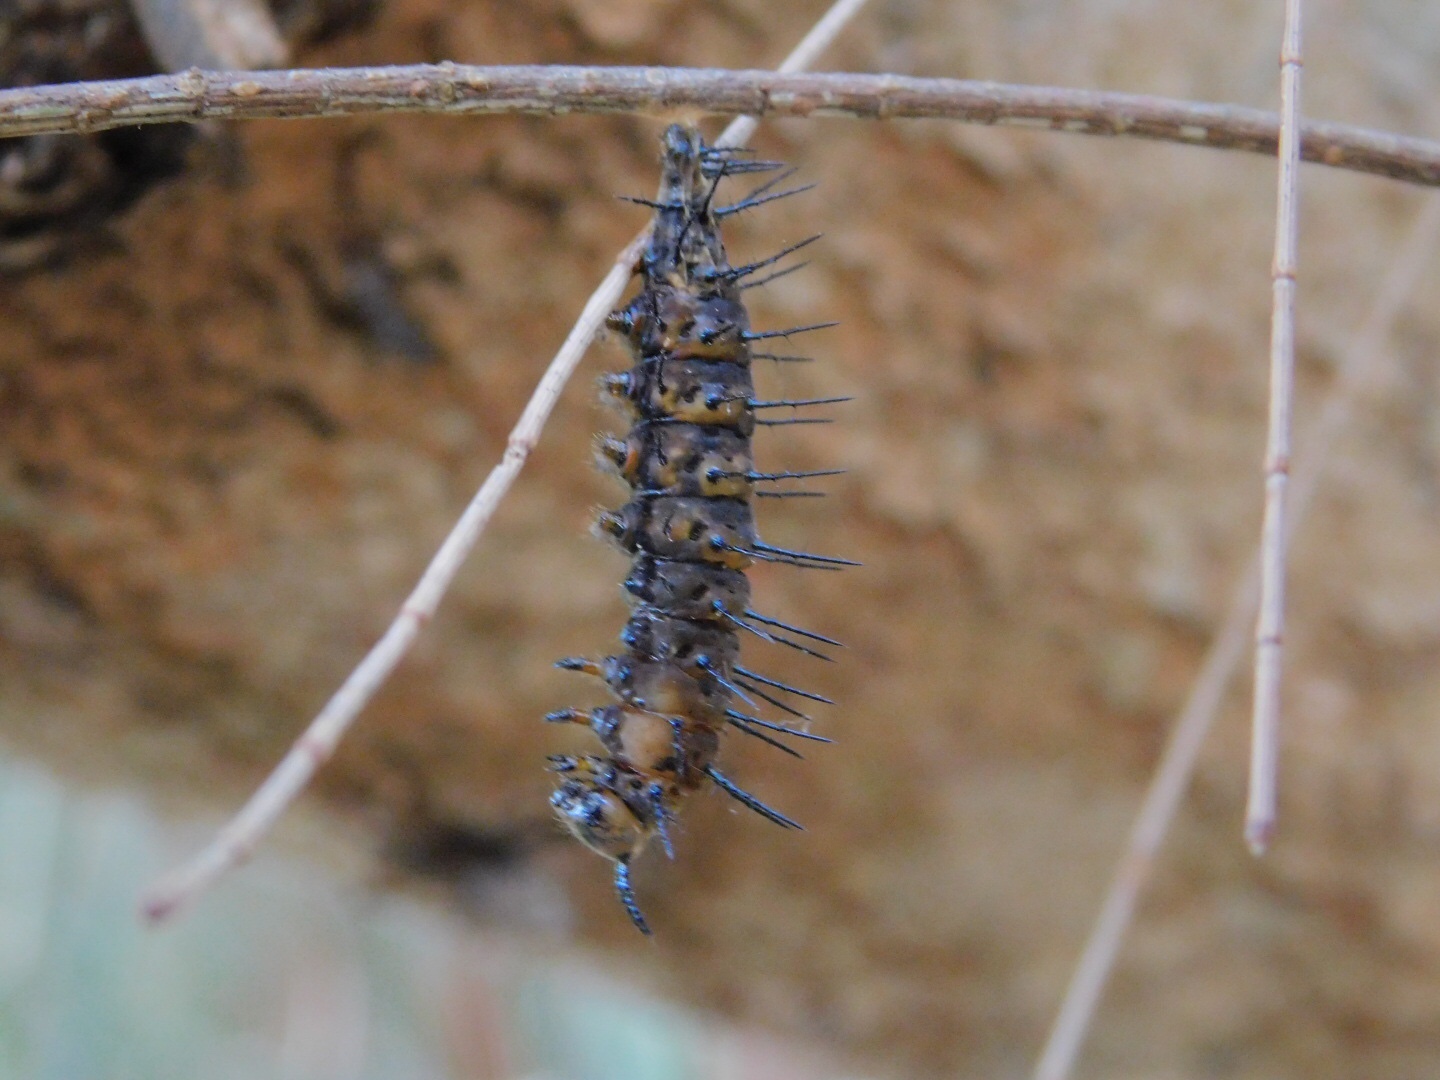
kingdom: Animalia
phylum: Arthropoda
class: Insecta
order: Lepidoptera
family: Nymphalidae
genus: Dione
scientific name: Dione vanillae
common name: Gulf fritillary
